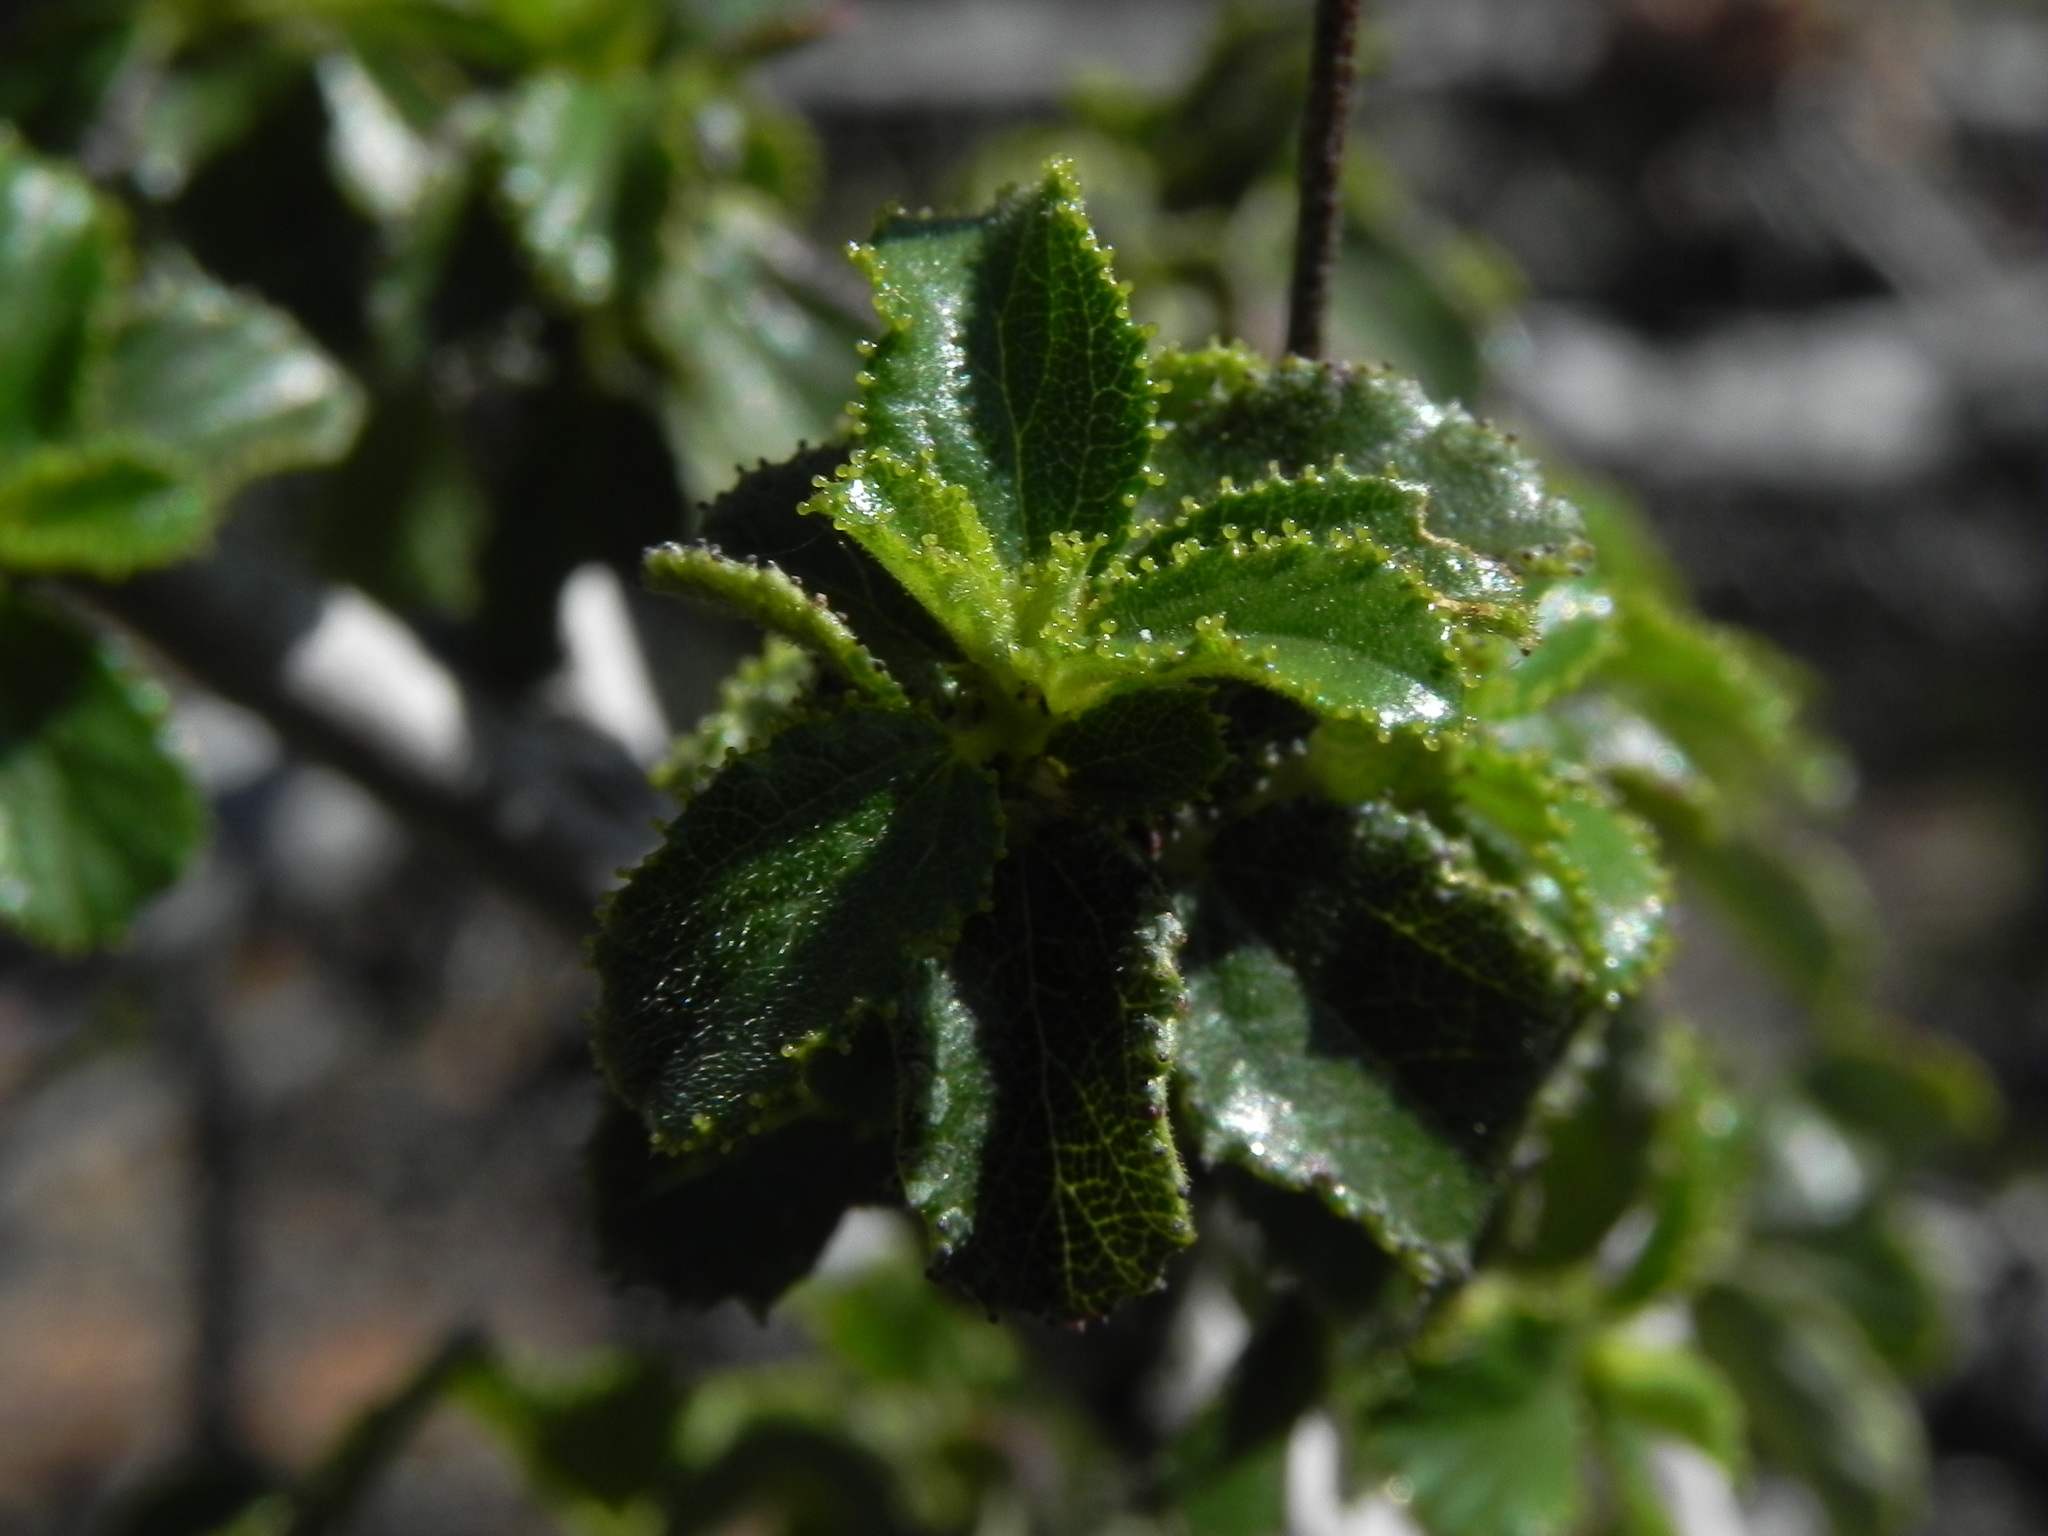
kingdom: Plantae
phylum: Tracheophyta
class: Magnoliopsida
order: Rosales
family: Rhamnaceae
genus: Ceanothus
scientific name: Ceanothus foliosus
